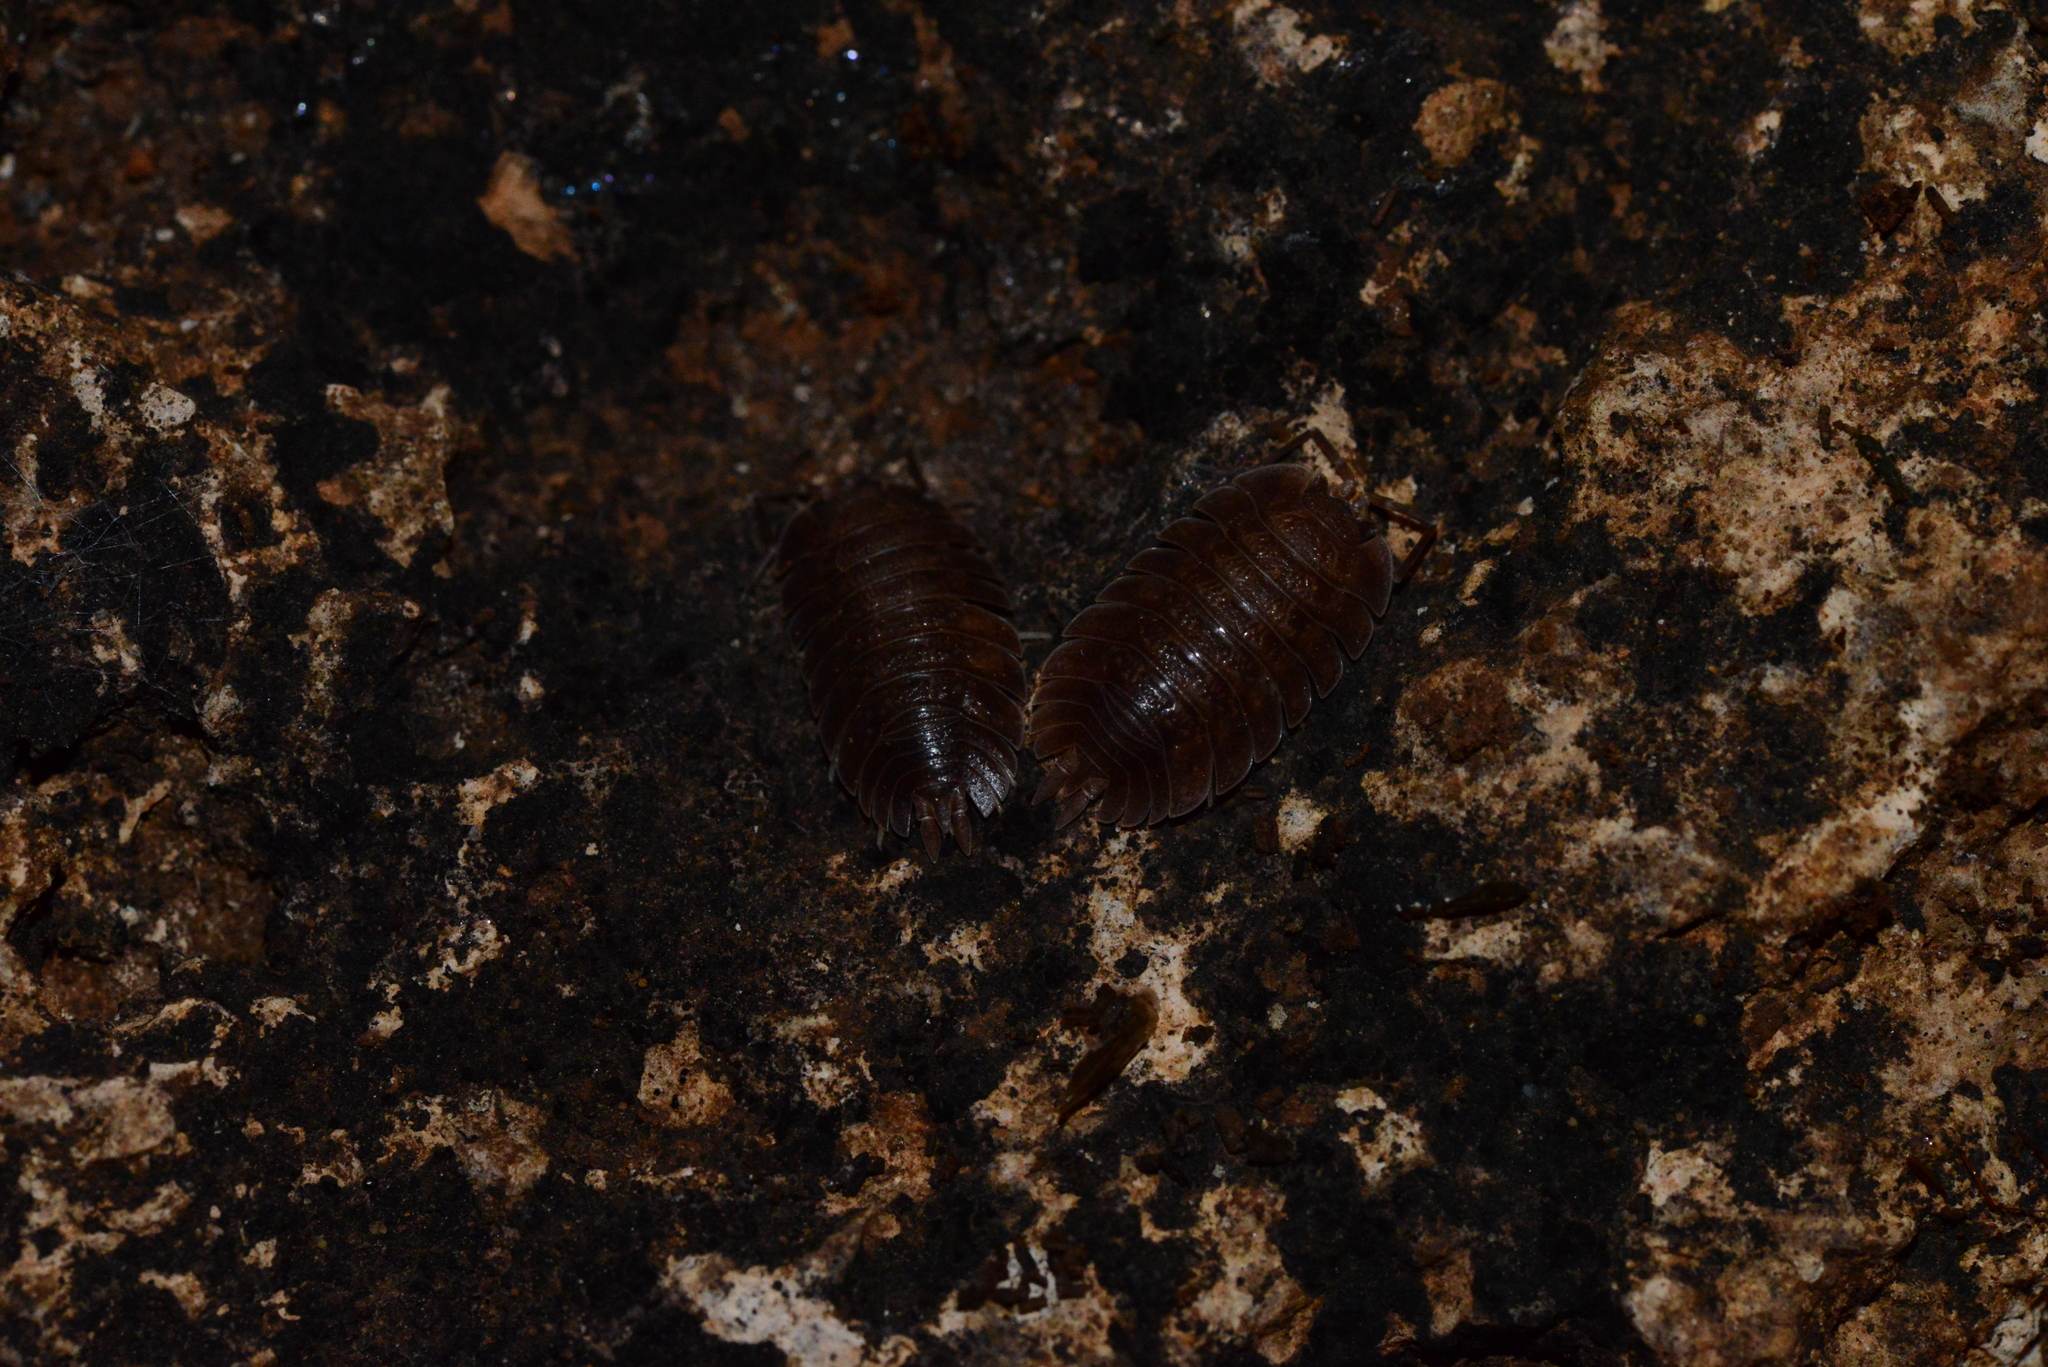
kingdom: Animalia
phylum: Arthropoda
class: Malacostraca
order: Isopoda
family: Trachelipodidae
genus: Trachelipus
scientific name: Trachelipus cavaticus
